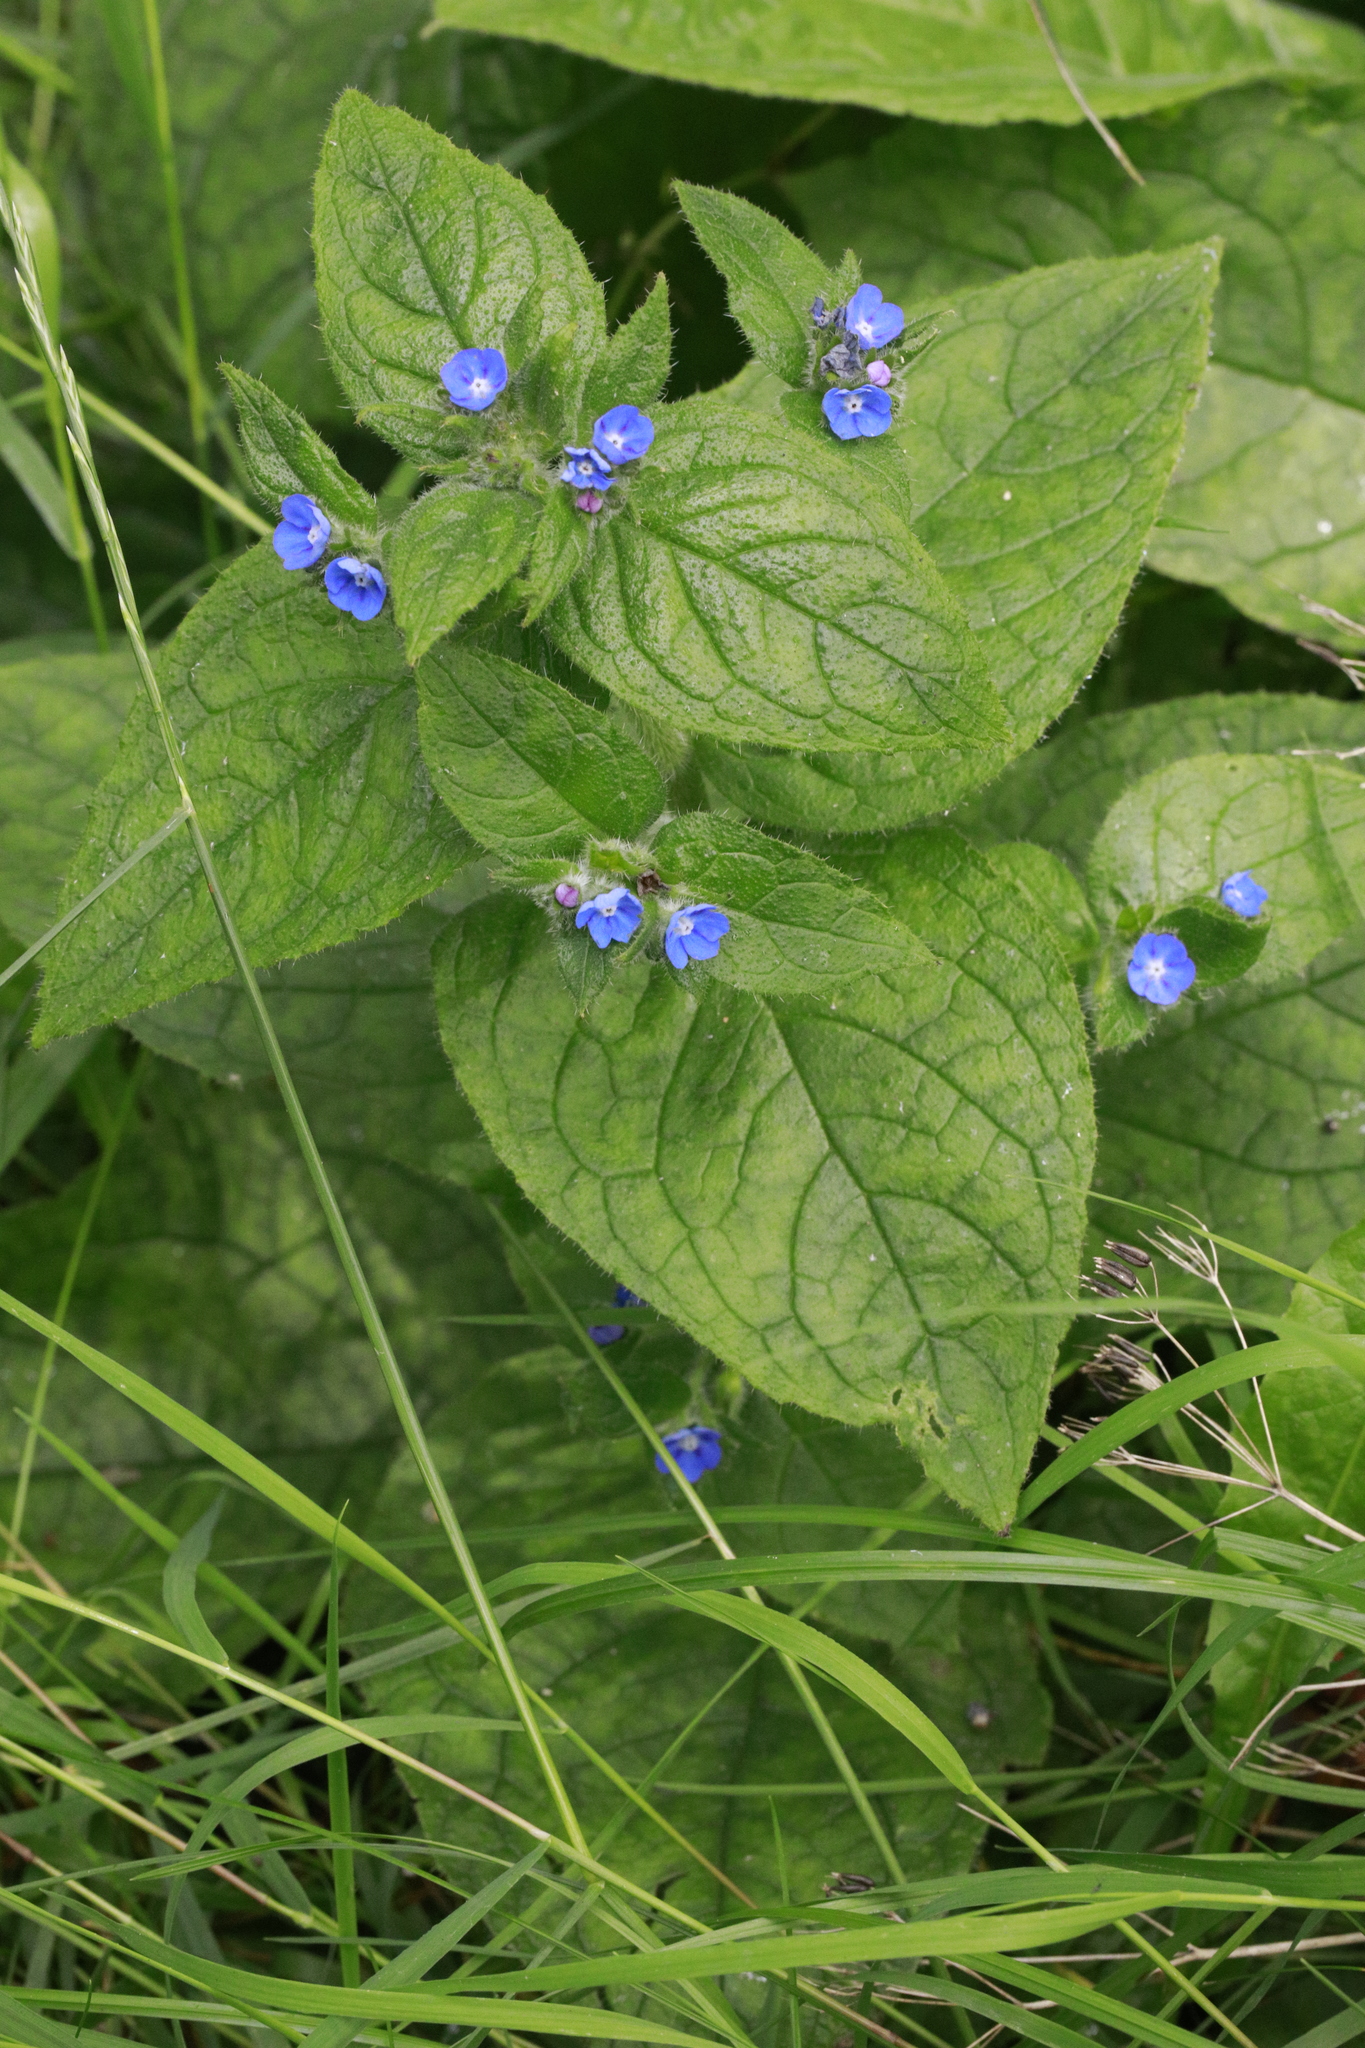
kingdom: Plantae
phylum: Tracheophyta
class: Magnoliopsida
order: Boraginales
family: Boraginaceae
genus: Pentaglottis
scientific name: Pentaglottis sempervirens
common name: Green alkanet
